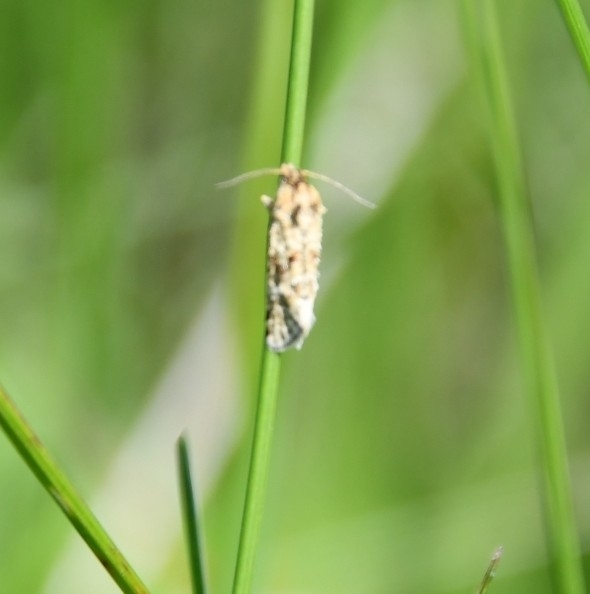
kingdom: Animalia
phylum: Arthropoda
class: Insecta
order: Lepidoptera
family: Tortricidae
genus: Aethes
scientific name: Aethes williana
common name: Silver carrot conch
